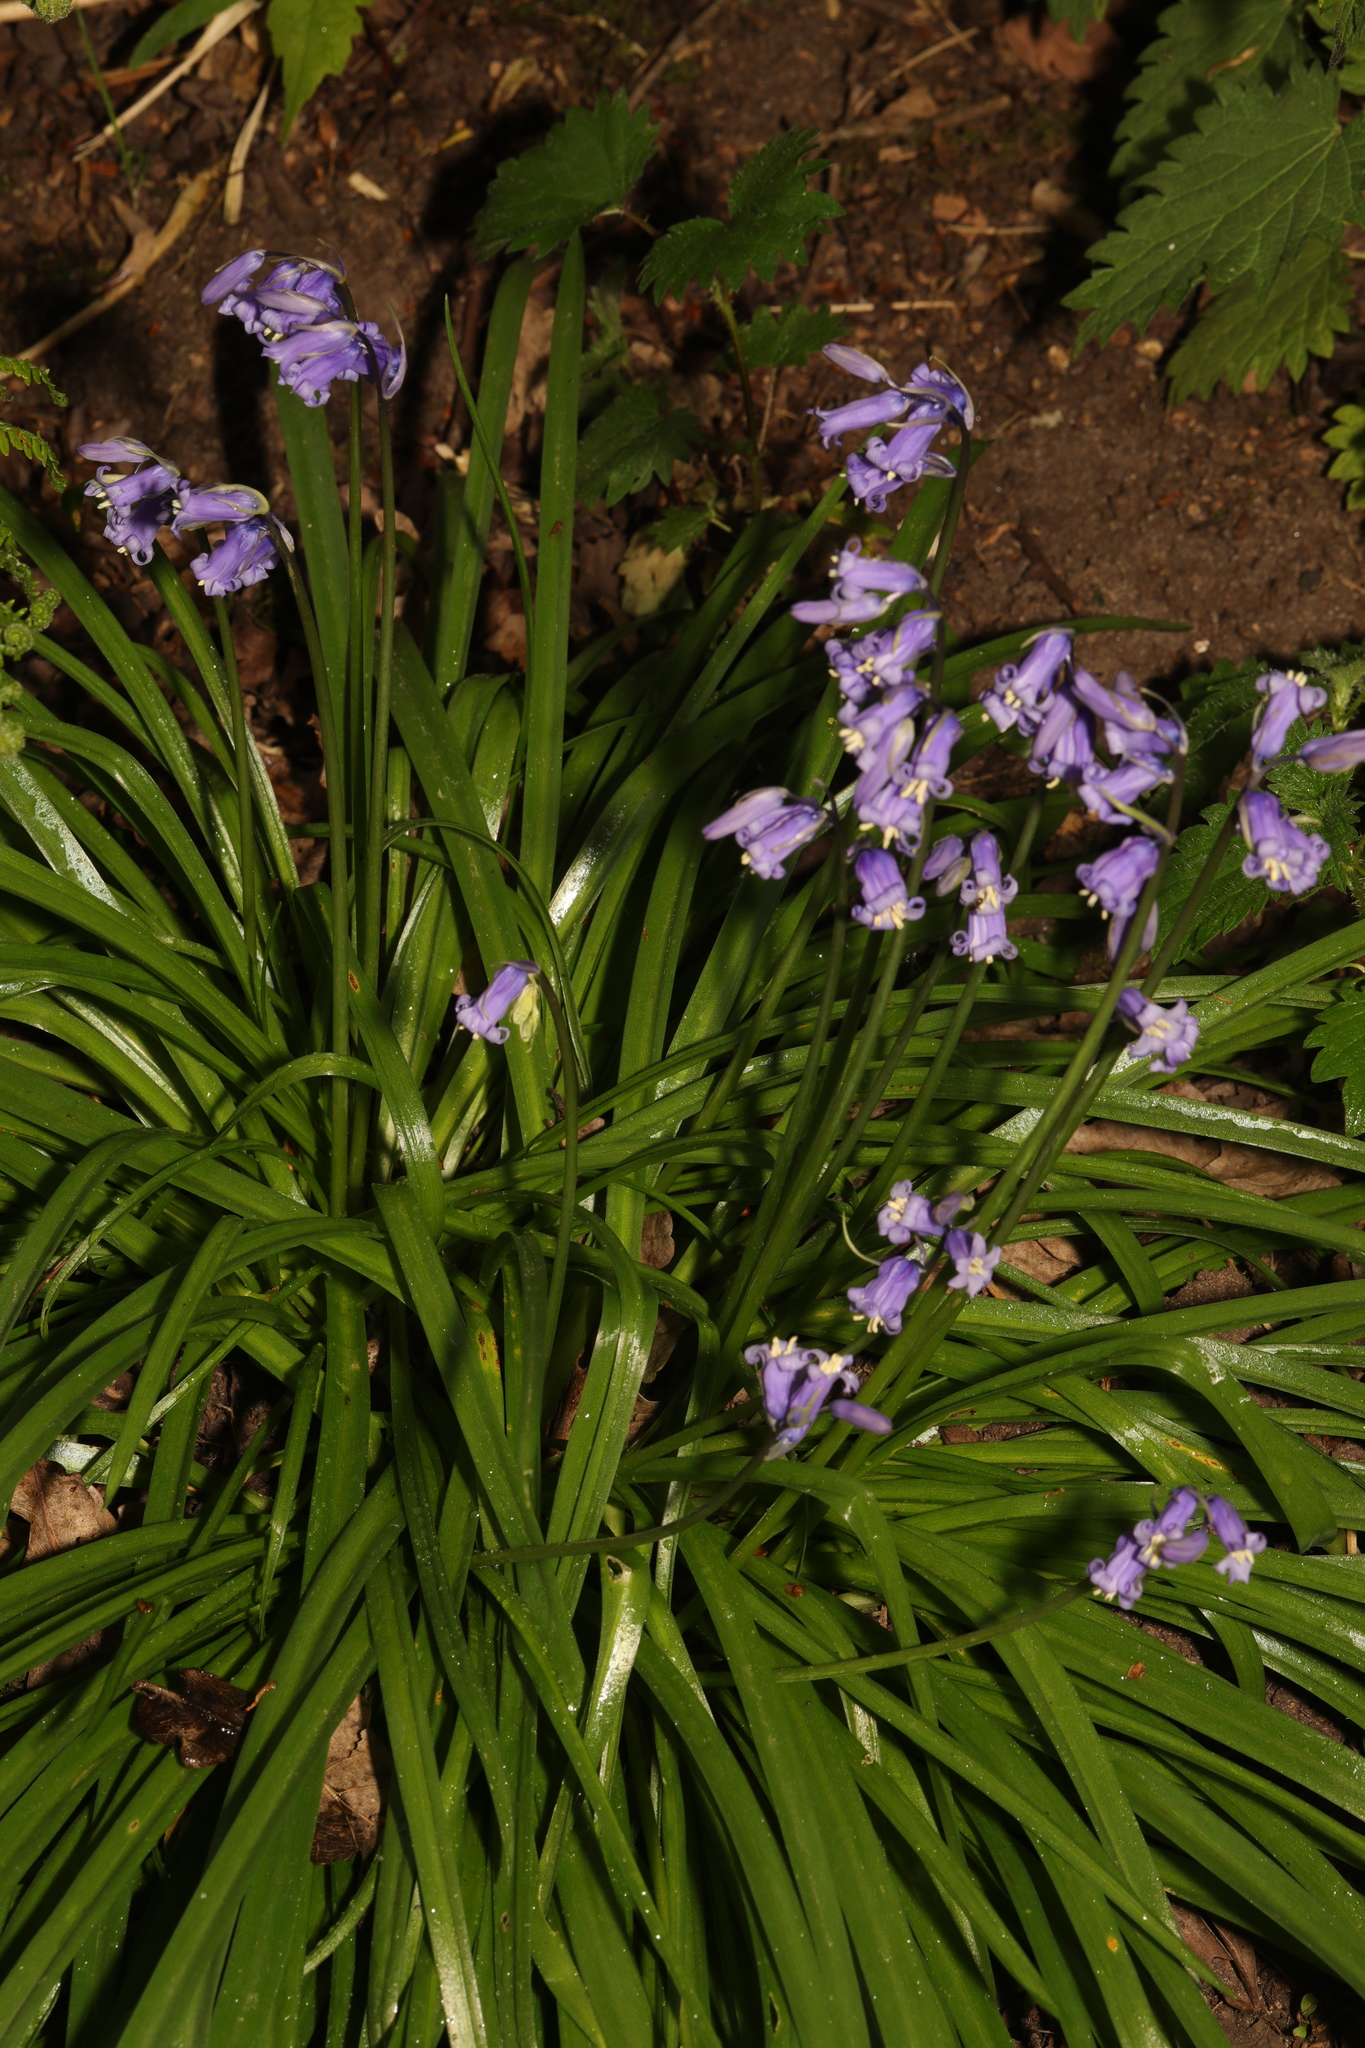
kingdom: Plantae
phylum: Tracheophyta
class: Liliopsida
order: Asparagales
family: Asparagaceae
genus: Hyacinthoides
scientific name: Hyacinthoides non-scripta
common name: Bluebell
